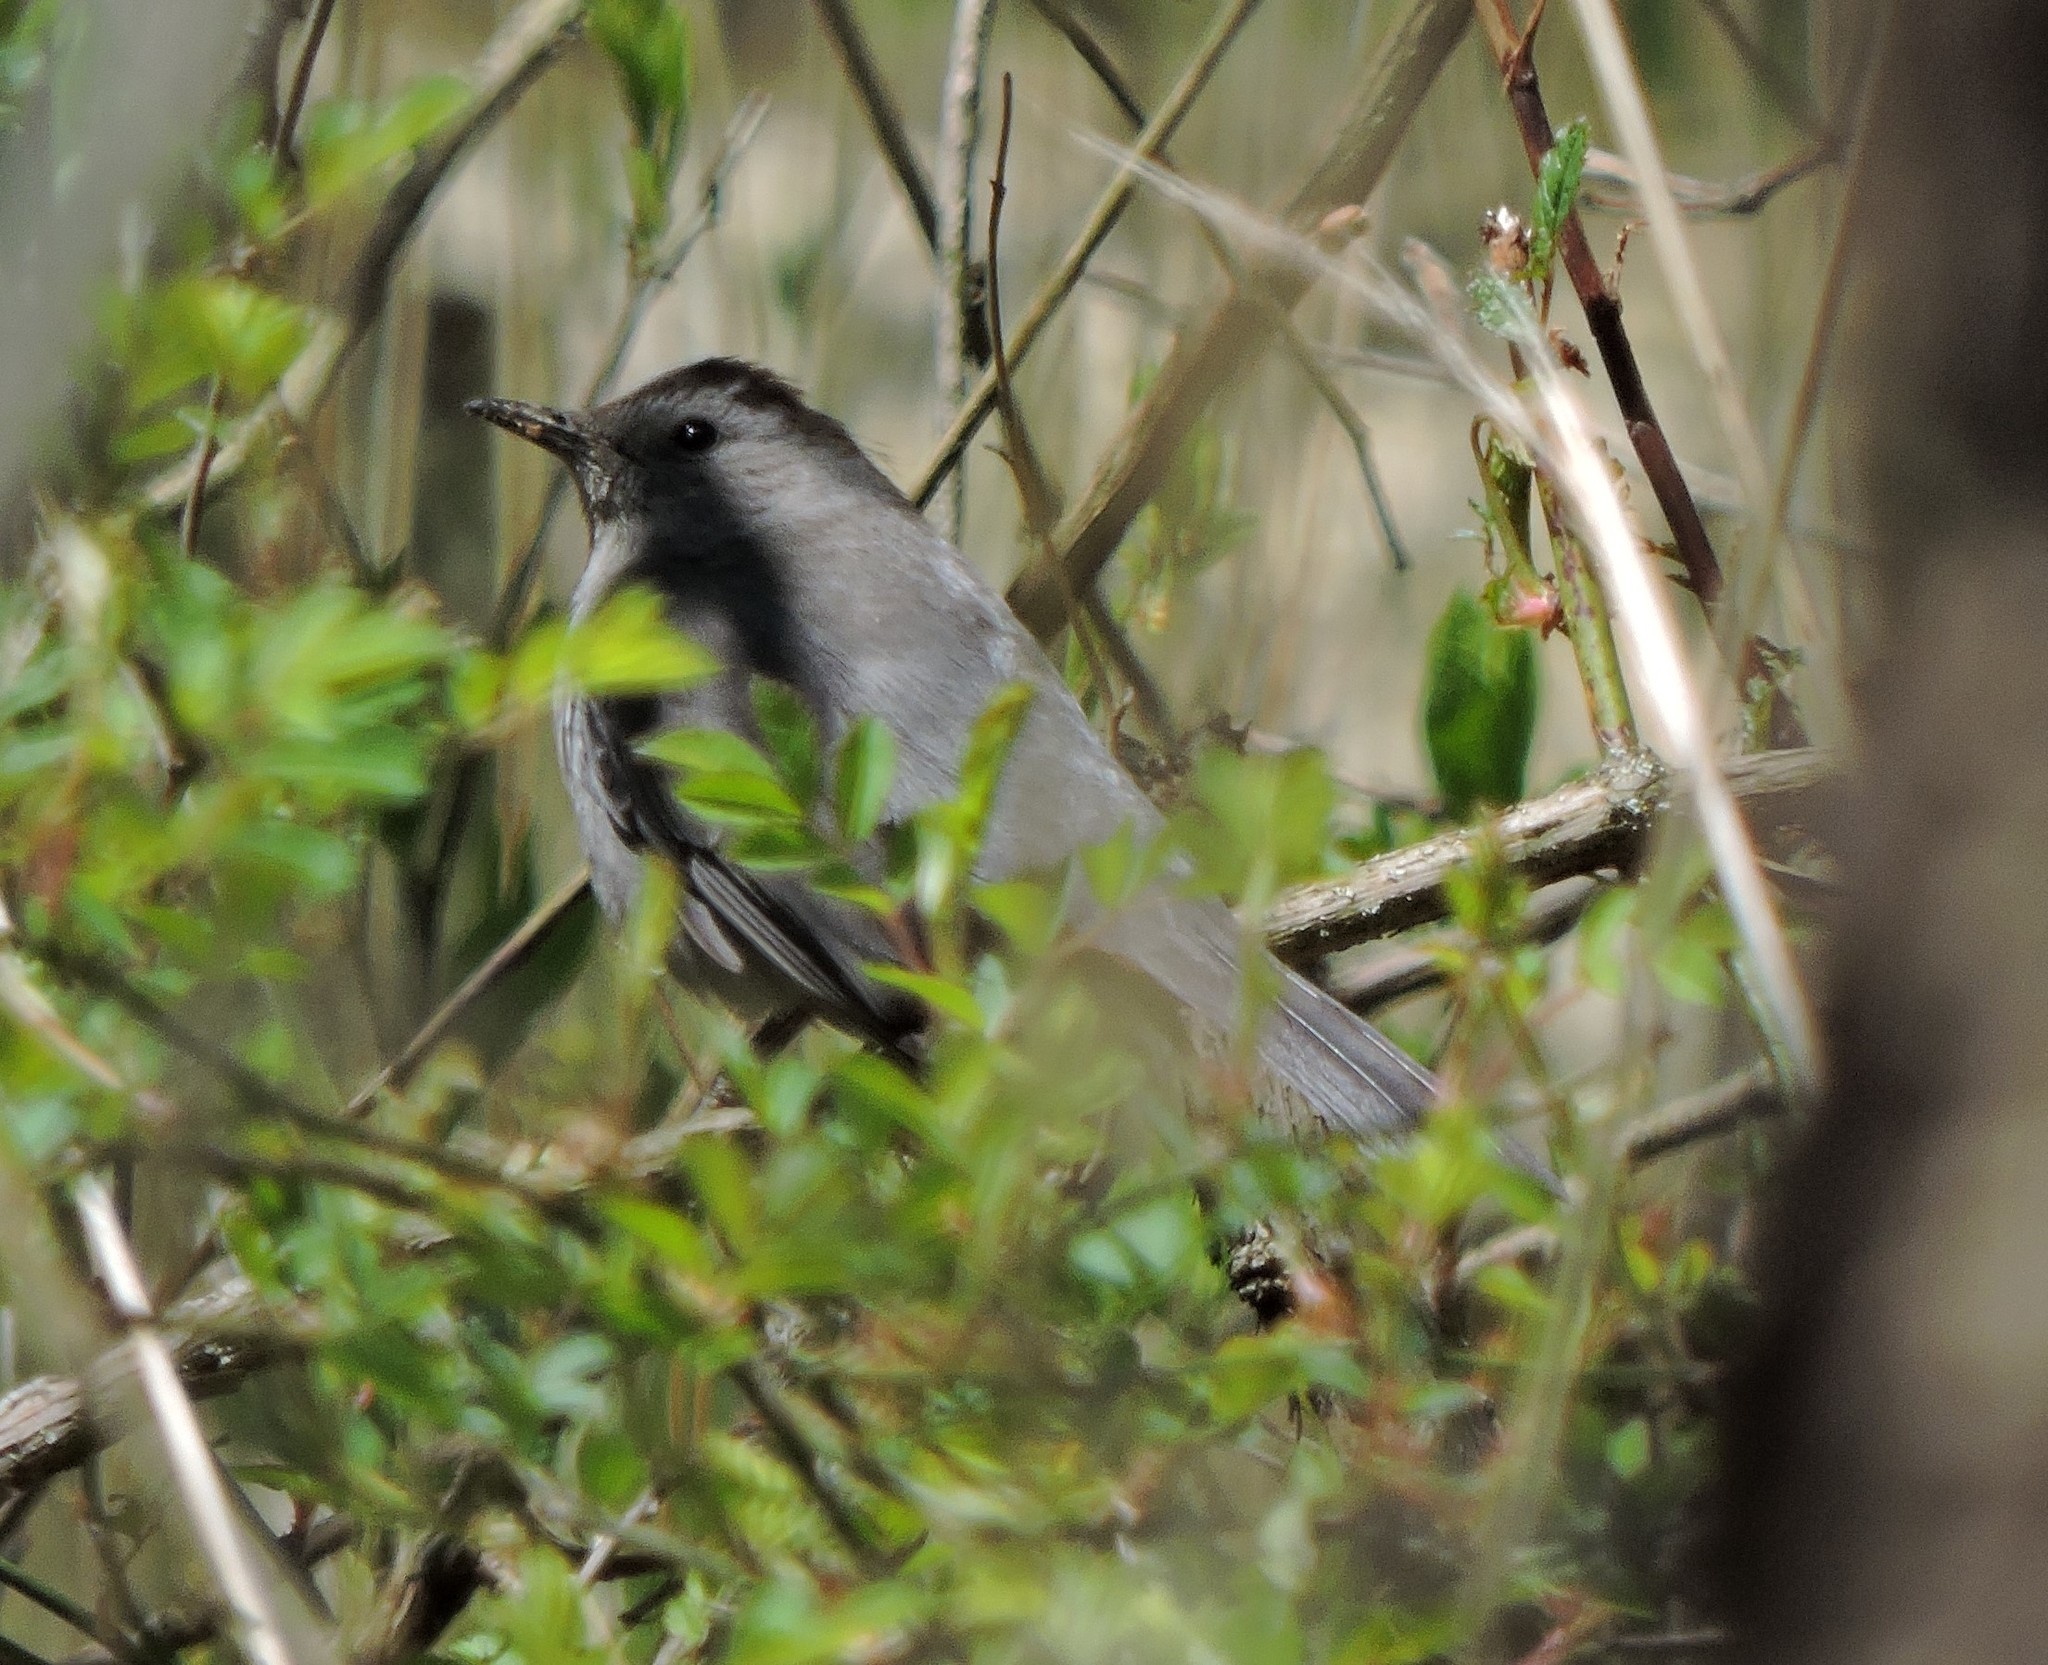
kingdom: Animalia
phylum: Chordata
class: Aves
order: Passeriformes
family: Mimidae
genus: Dumetella
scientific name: Dumetella carolinensis
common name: Gray catbird
